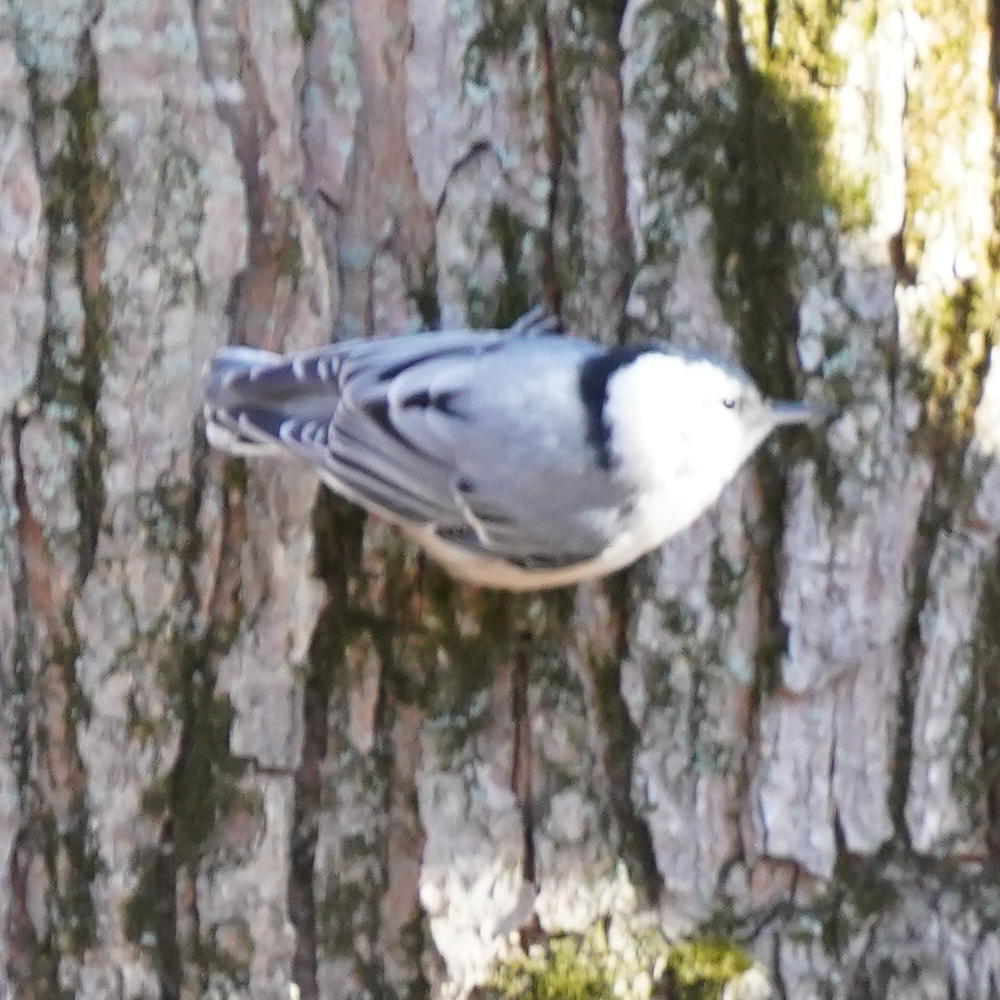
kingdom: Animalia
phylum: Chordata
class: Aves
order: Passeriformes
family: Sittidae
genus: Sitta
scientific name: Sitta carolinensis
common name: White-breasted nuthatch
